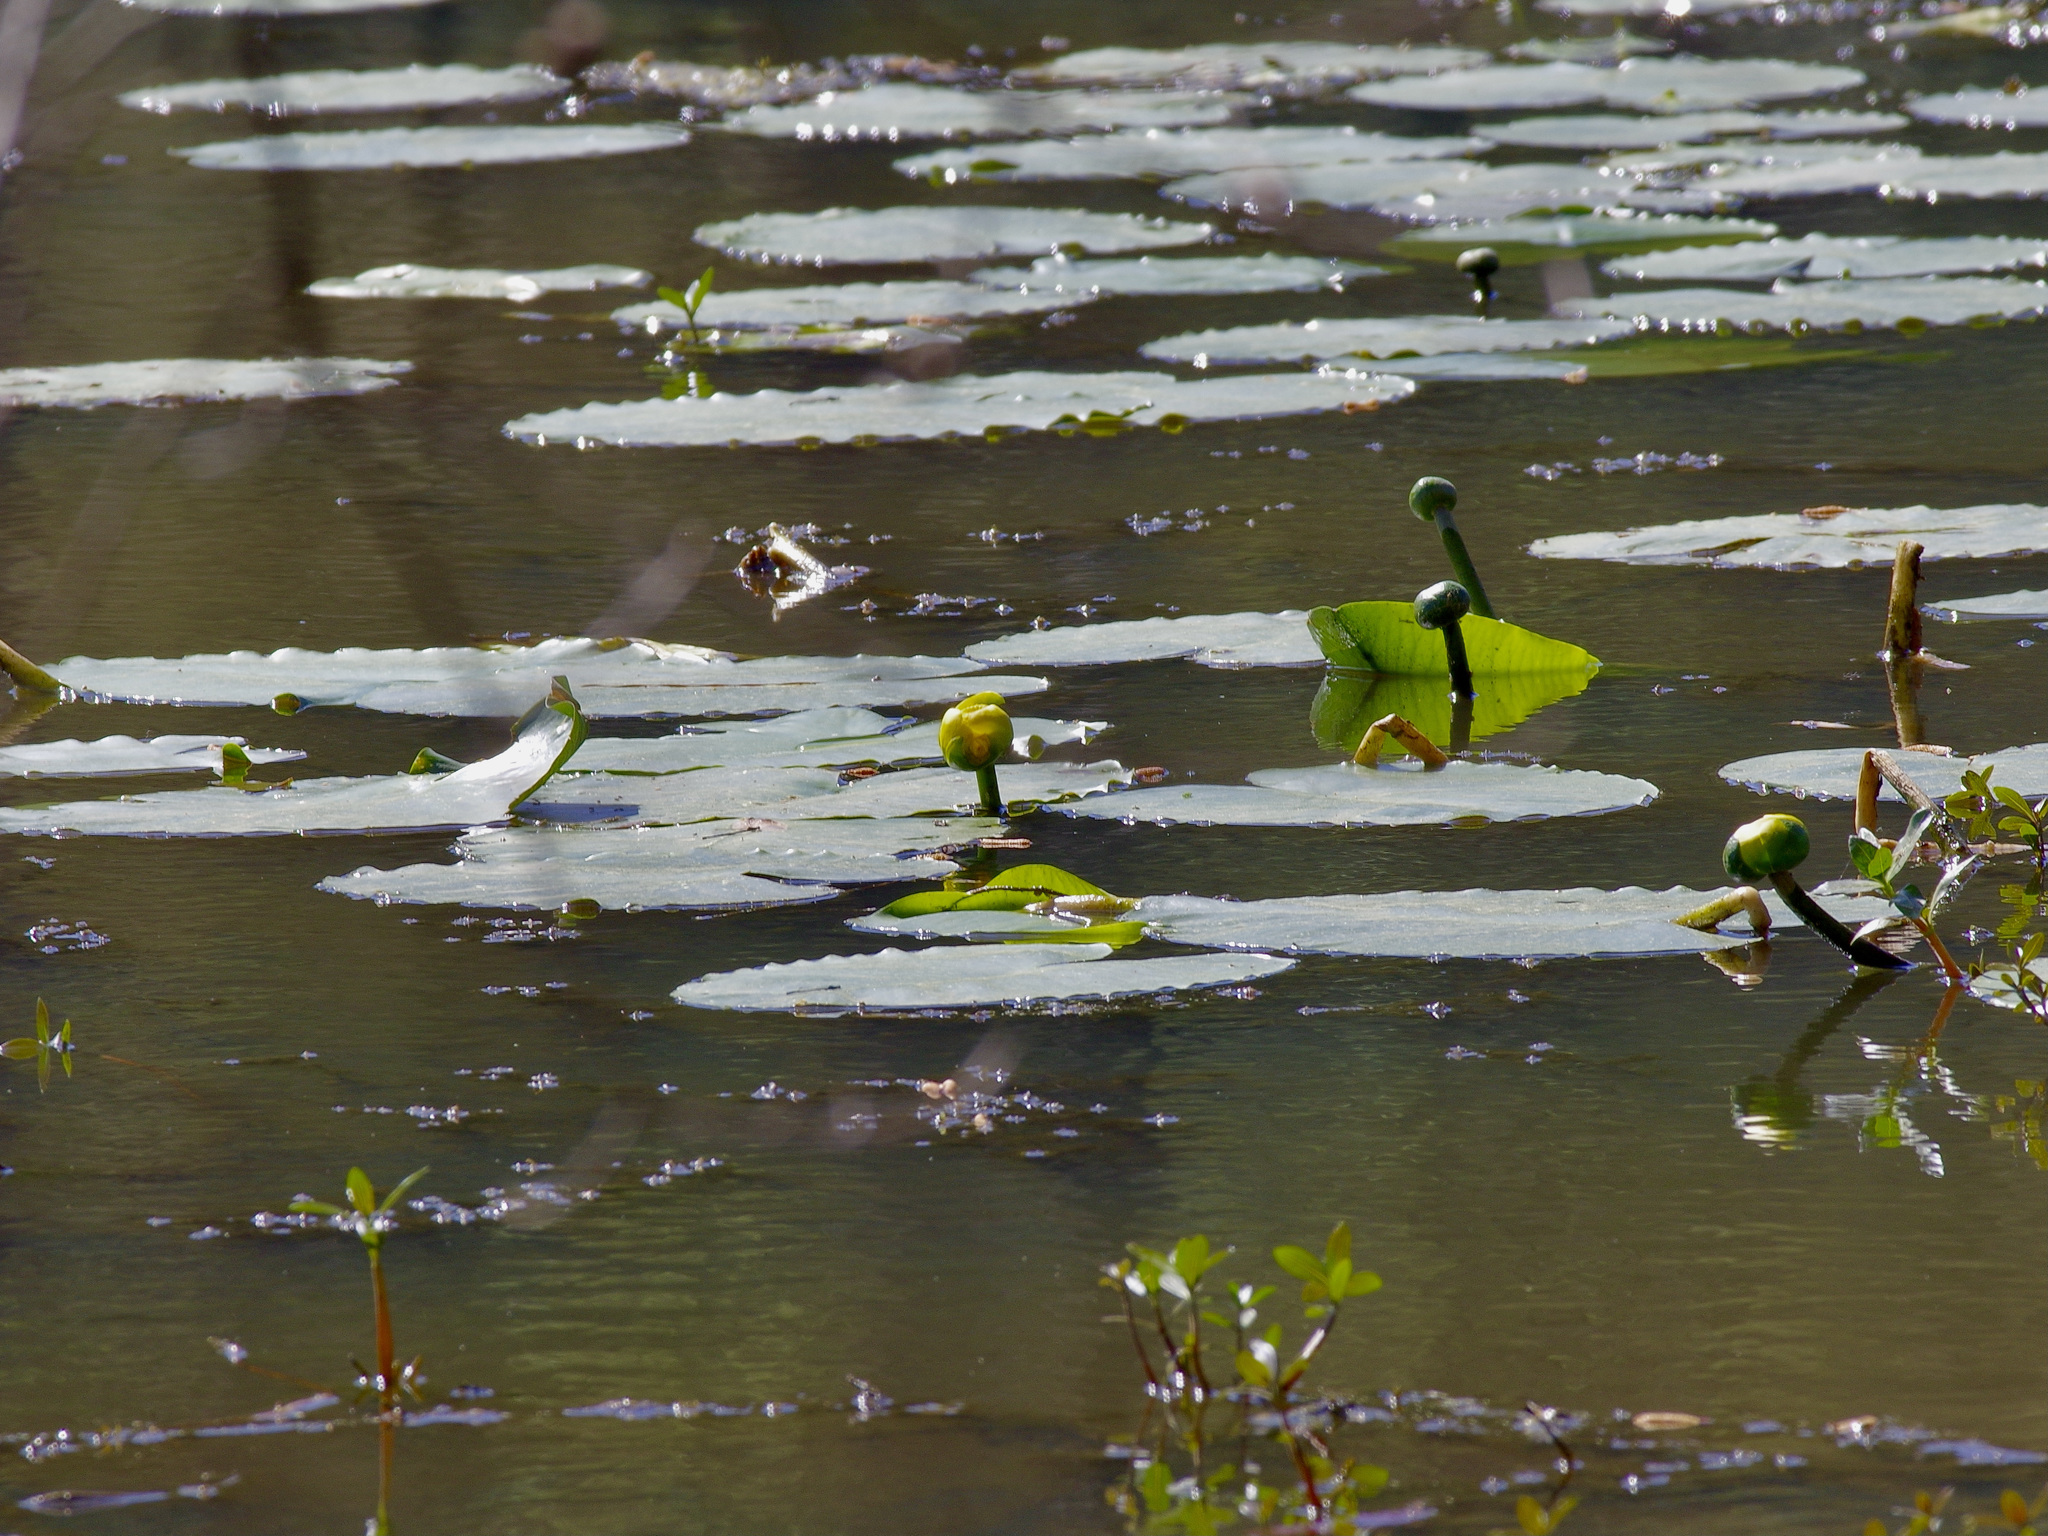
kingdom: Plantae
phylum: Tracheophyta
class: Magnoliopsida
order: Nymphaeales
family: Nymphaeaceae
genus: Nuphar
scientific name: Nuphar advena
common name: Spatter-dock
